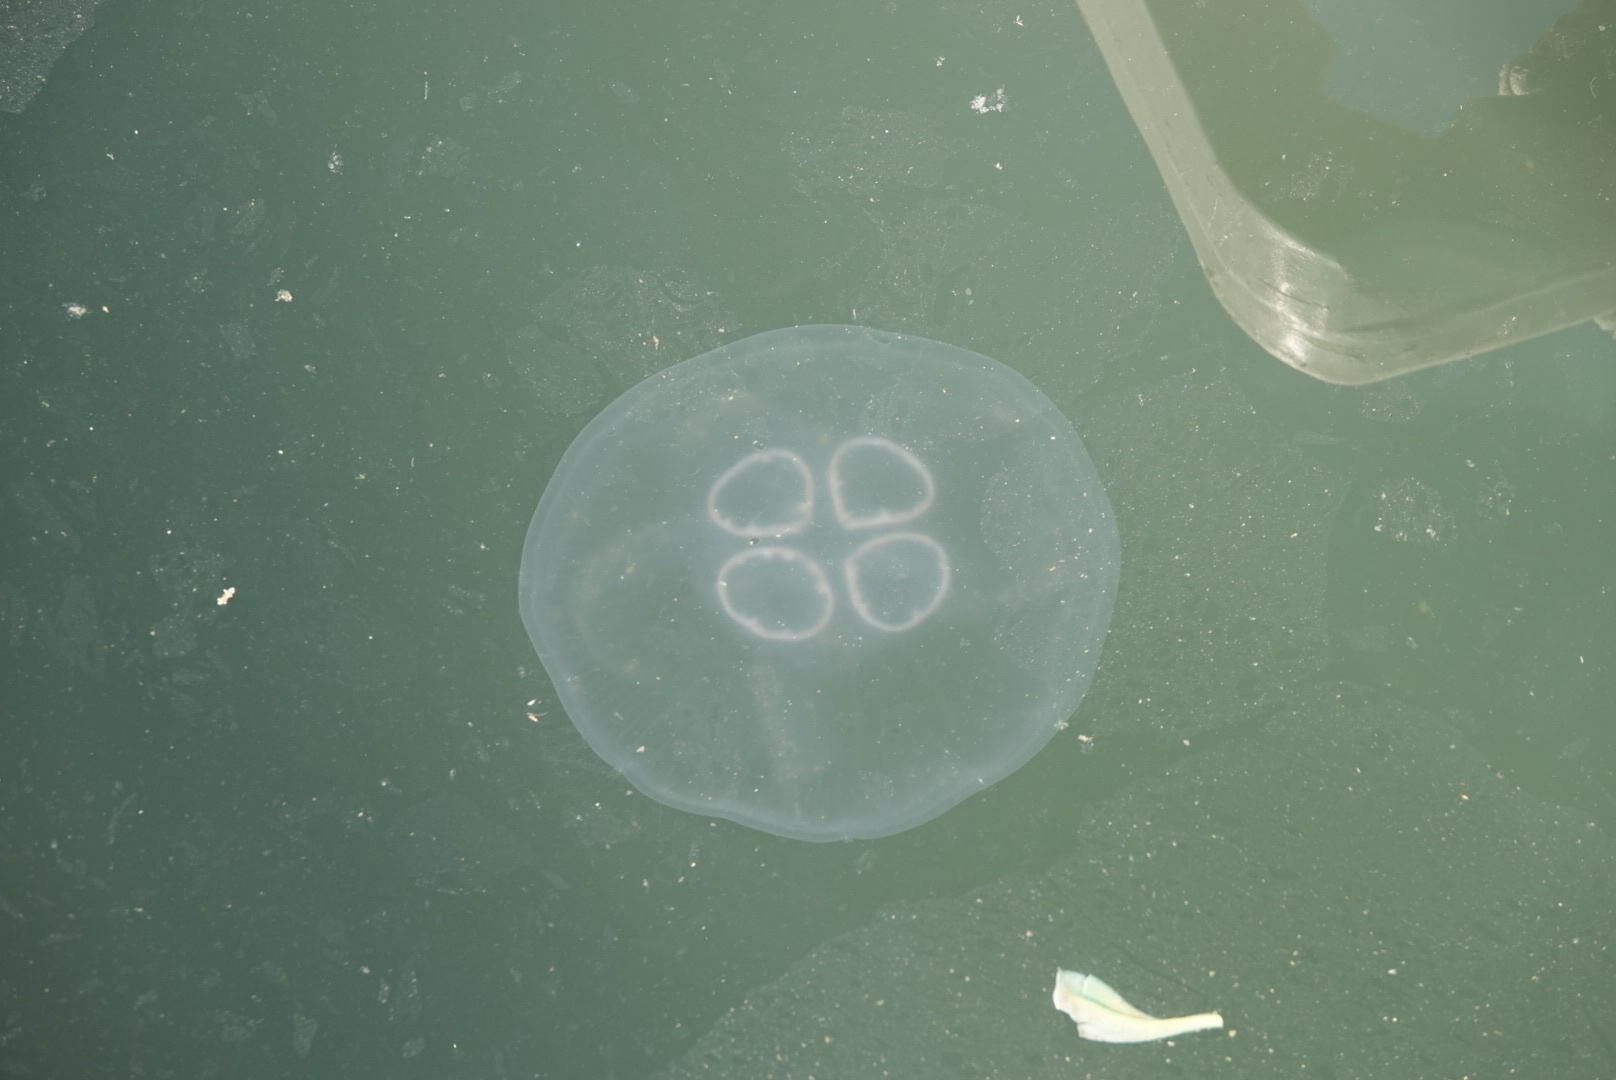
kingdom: Animalia
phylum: Cnidaria
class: Scyphozoa
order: Semaeostomeae
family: Ulmaridae
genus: Aurelia
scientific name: Aurelia labiata
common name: Pacific moon jelly
